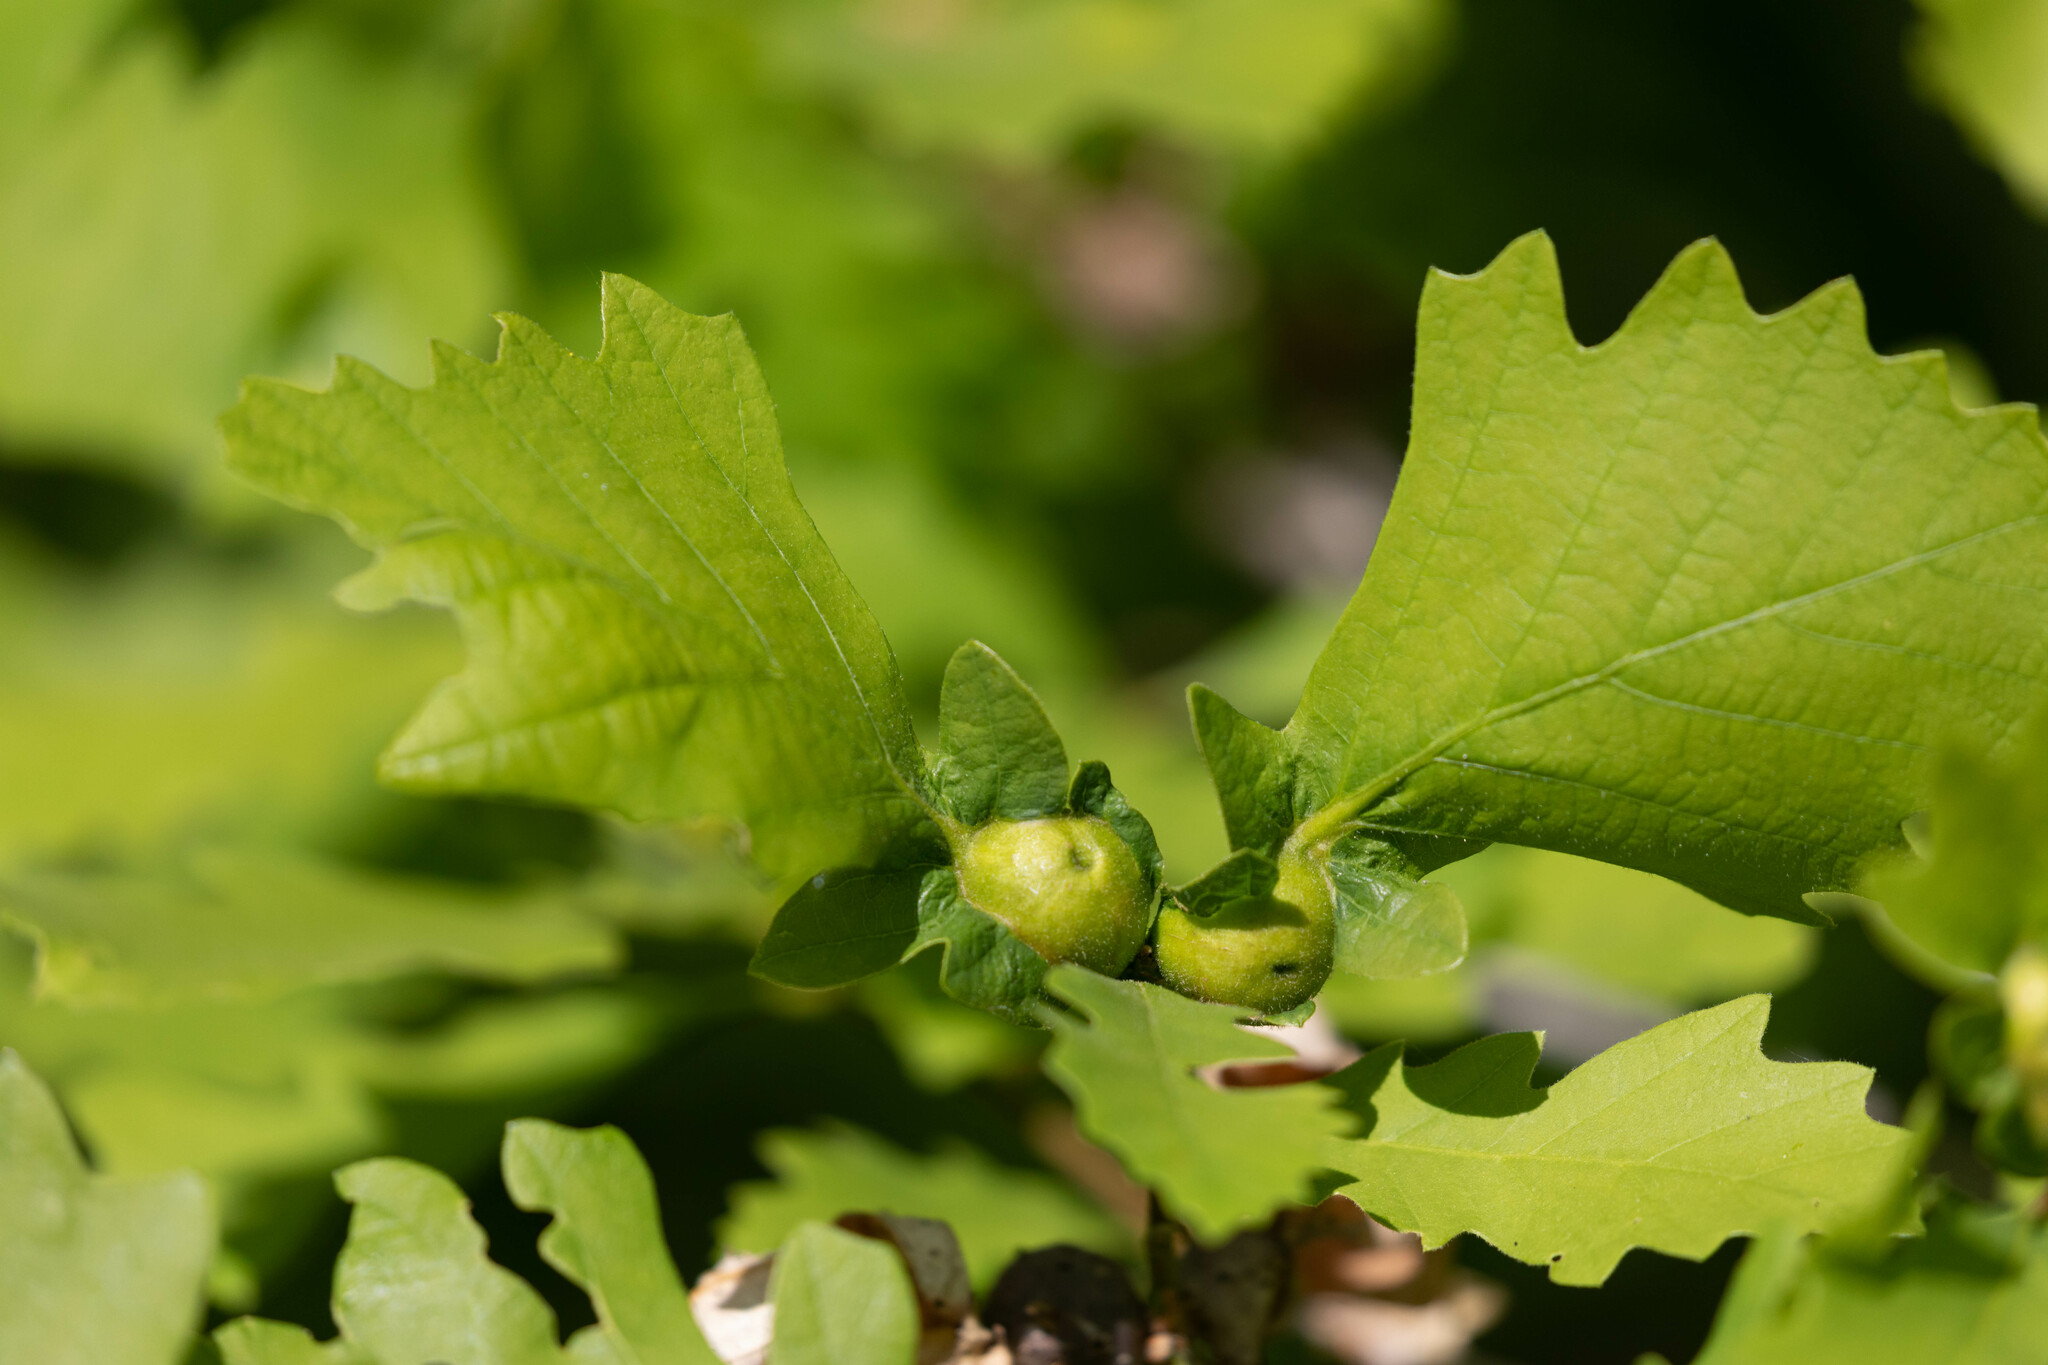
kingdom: Animalia
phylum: Arthropoda
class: Insecta
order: Hymenoptera
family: Cynipidae
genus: Andricus
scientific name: Andricus
